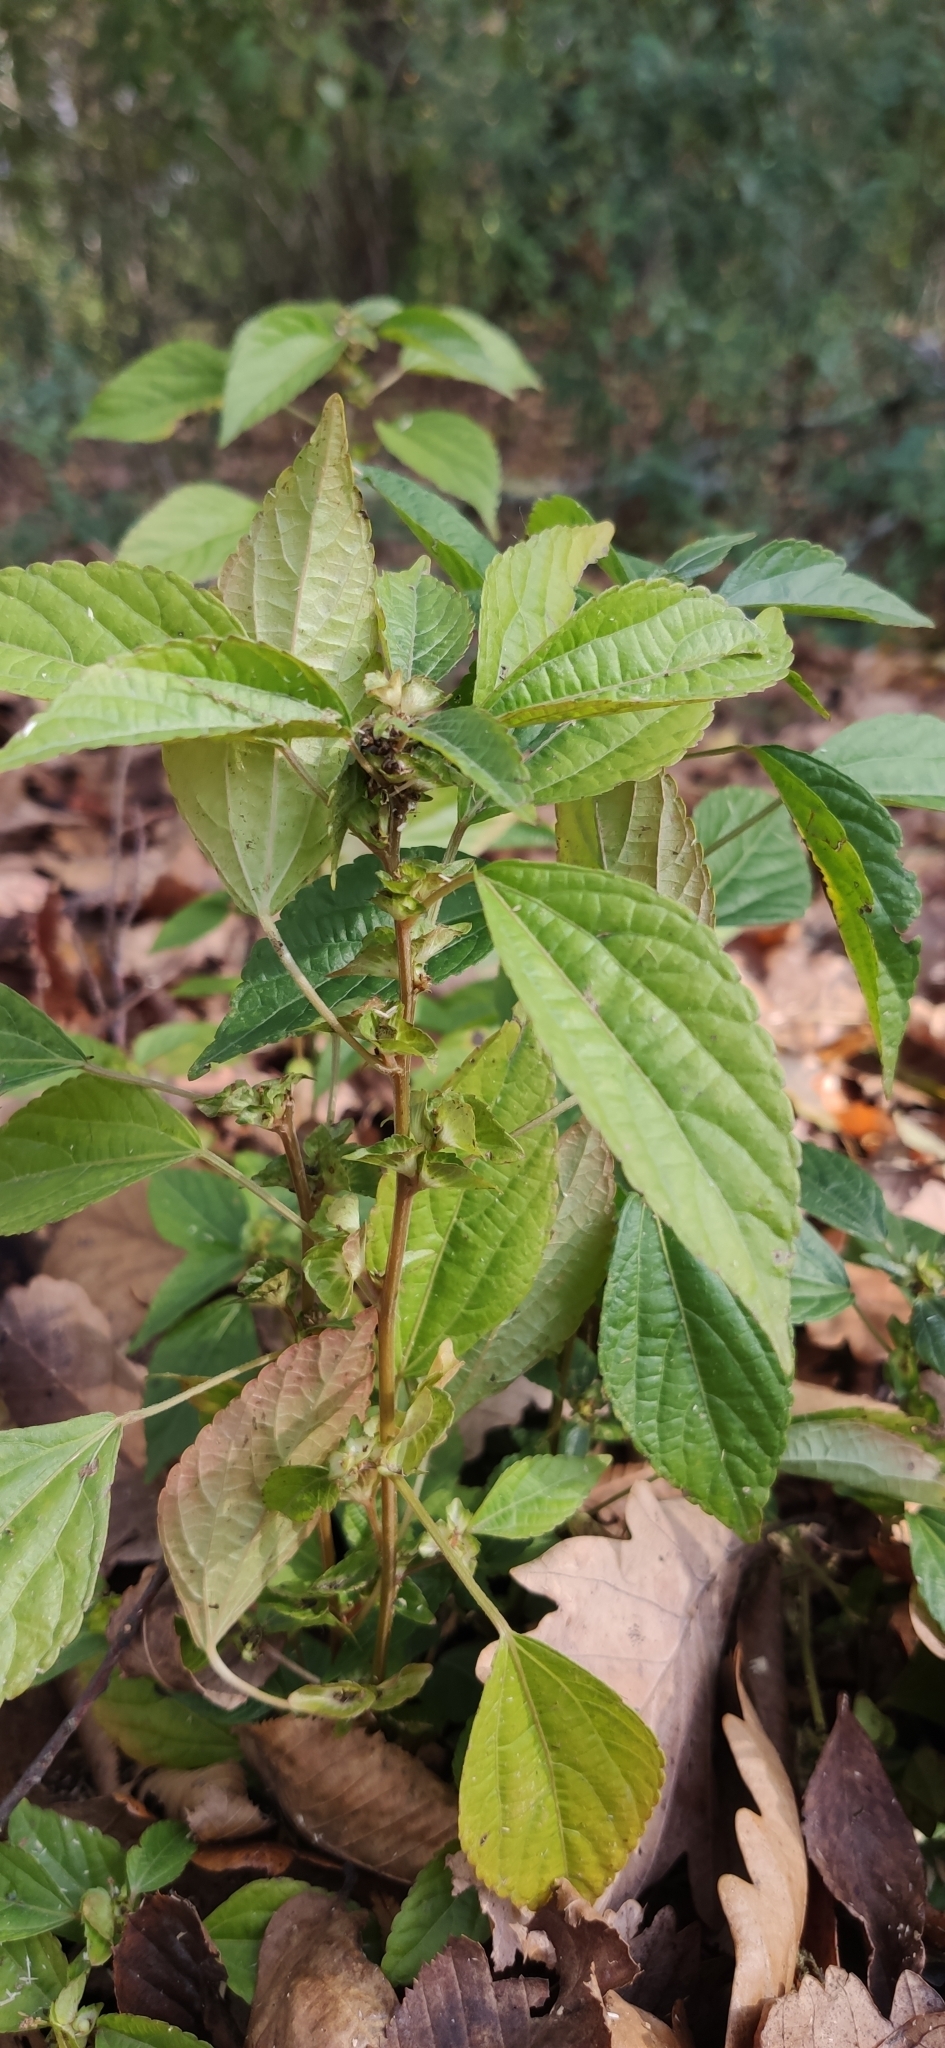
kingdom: Plantae
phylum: Tracheophyta
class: Magnoliopsida
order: Malpighiales
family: Euphorbiaceae
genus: Acalypha
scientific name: Acalypha australis
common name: Asian copperleaf
